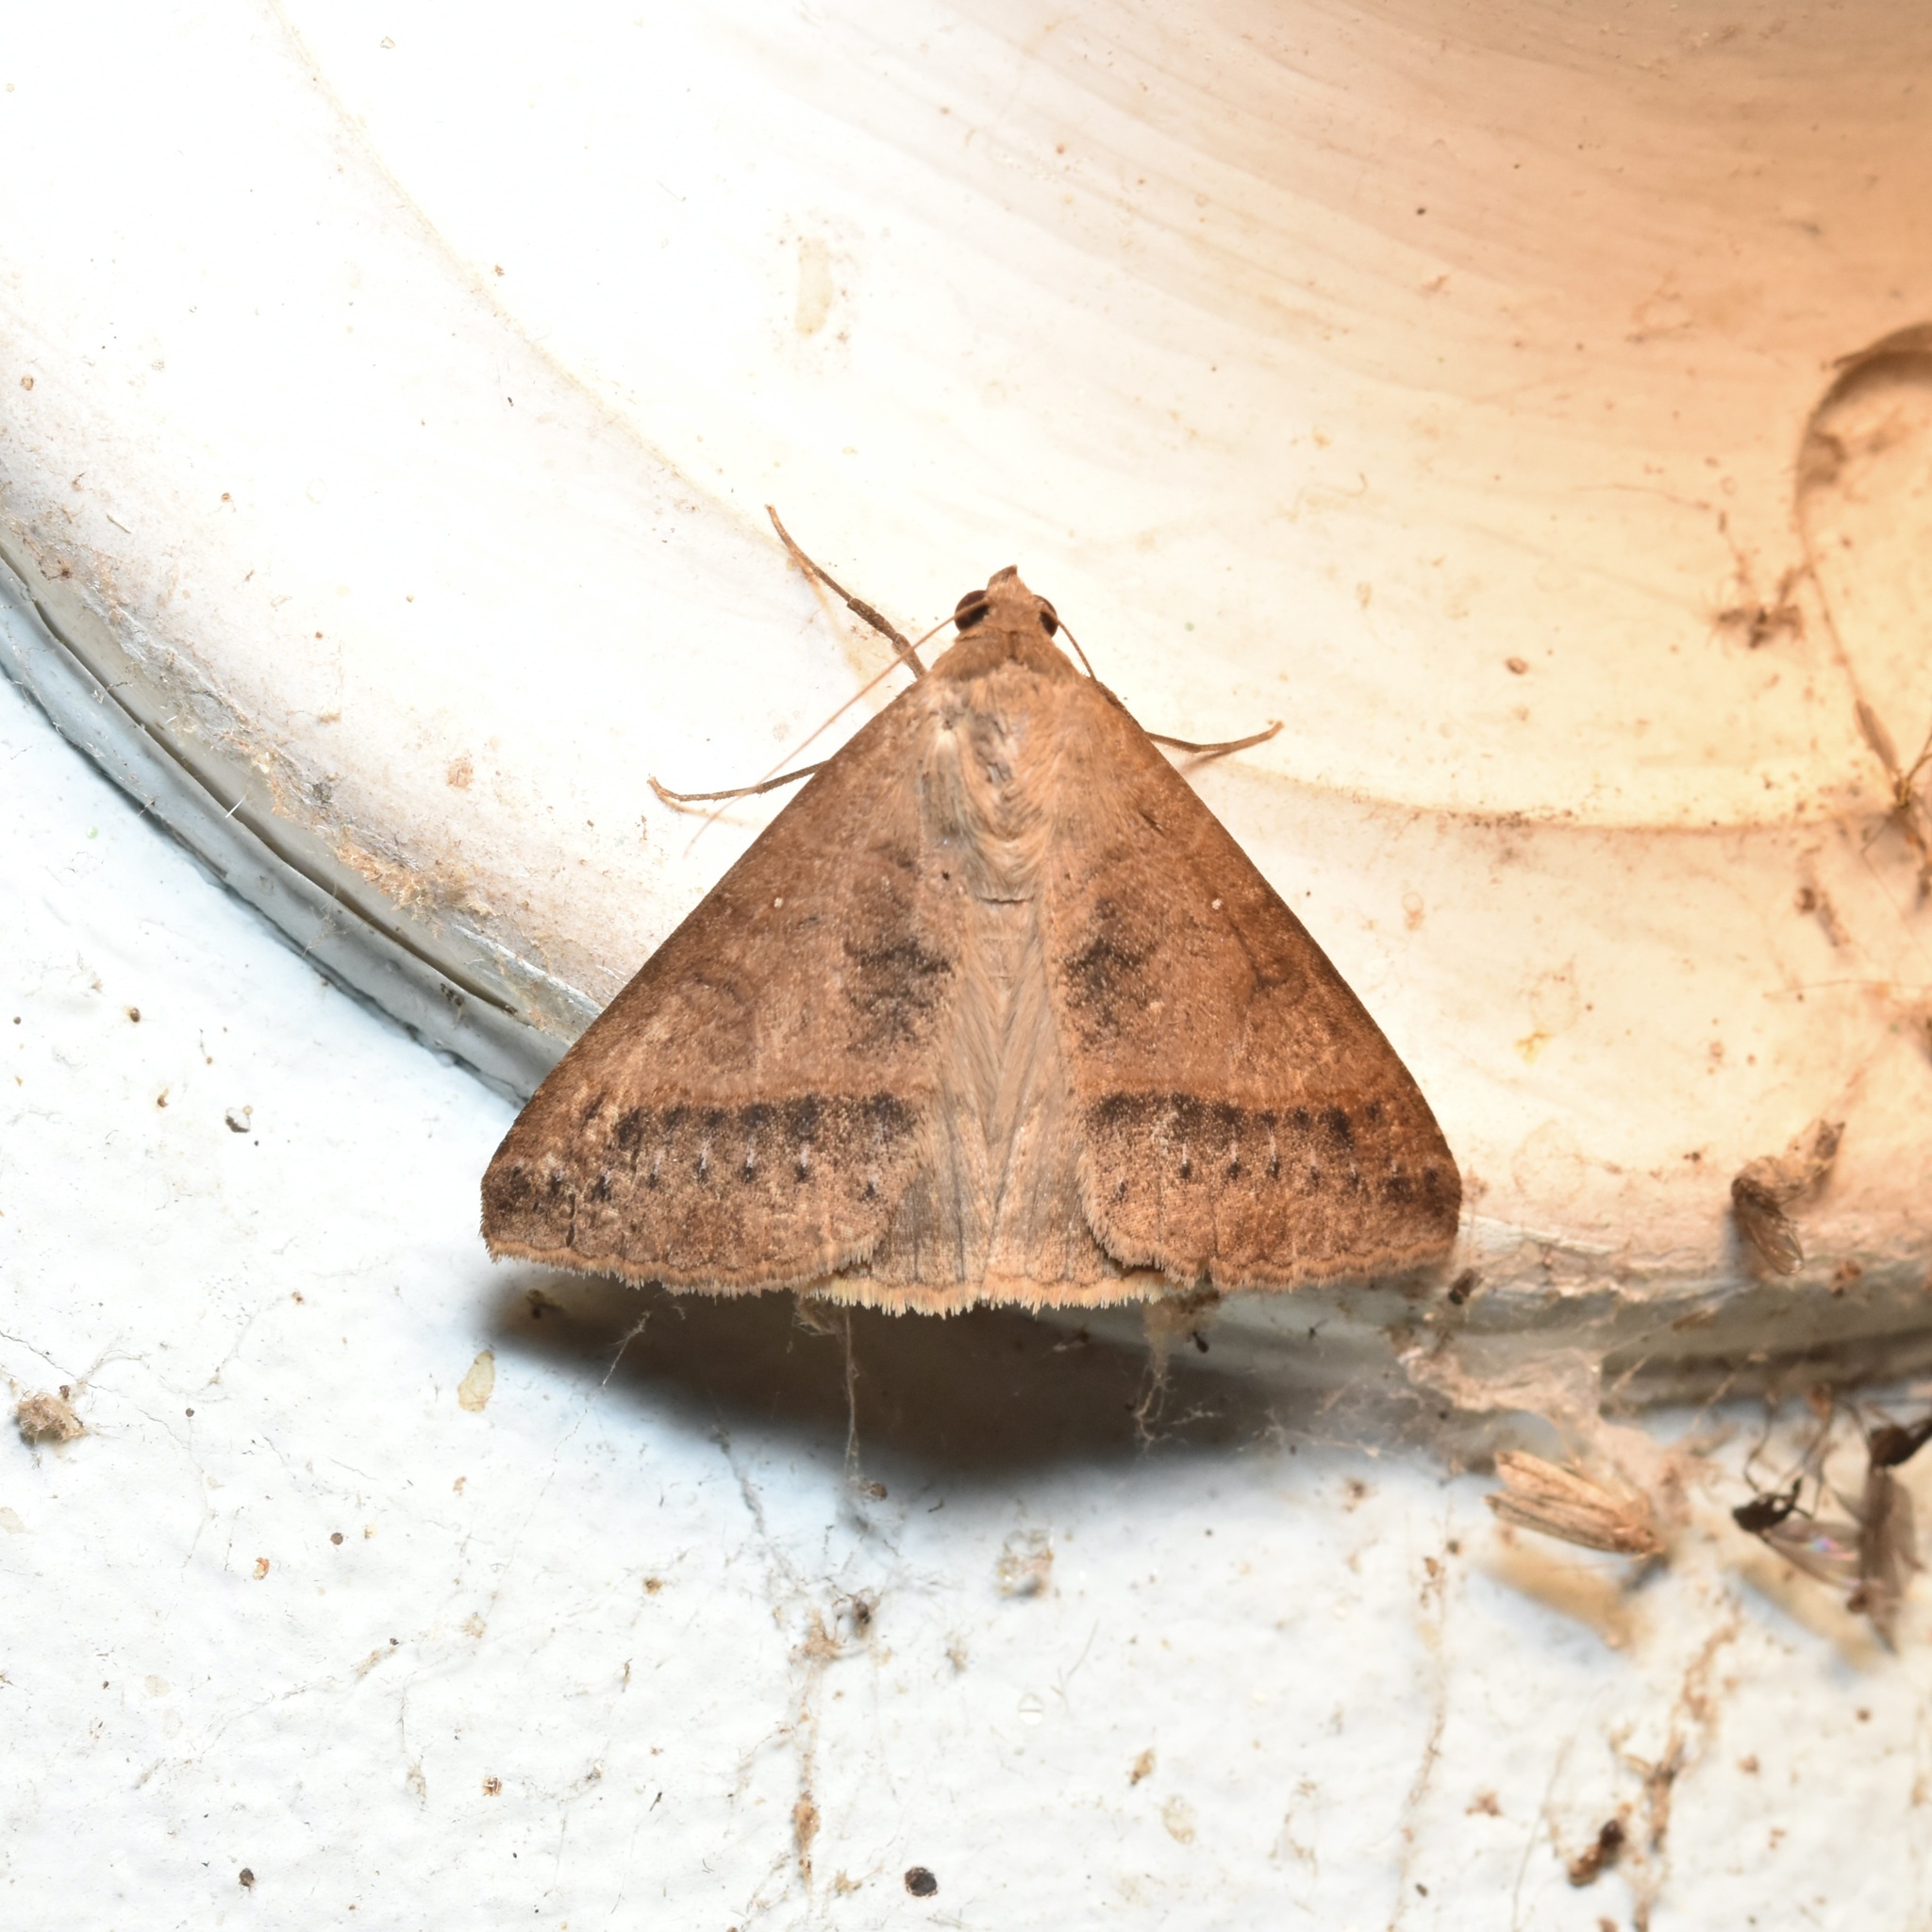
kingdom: Animalia
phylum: Arthropoda
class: Insecta
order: Lepidoptera
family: Erebidae
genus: Mocis
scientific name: Mocis latipes
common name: Striped grass looper
